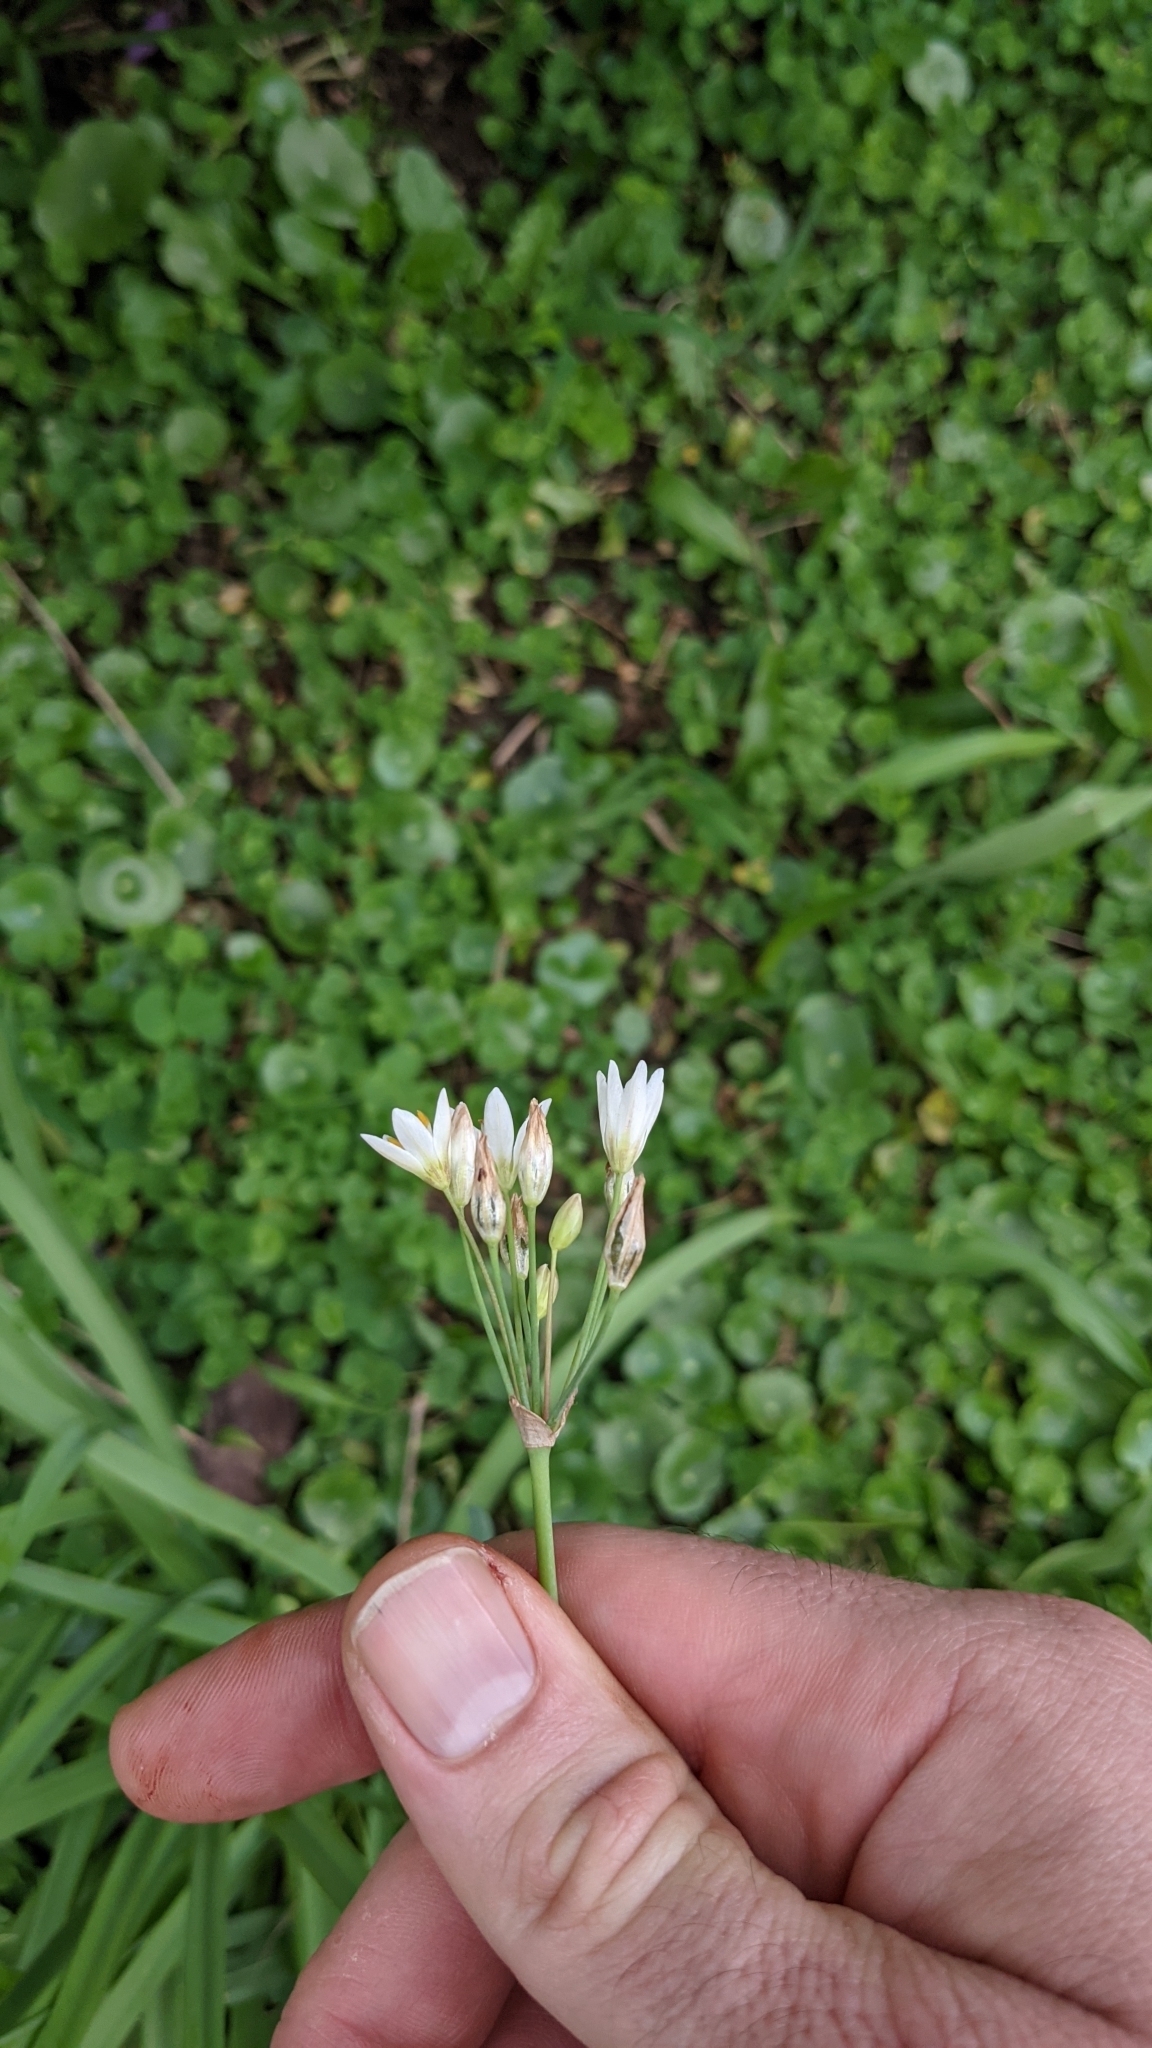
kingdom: Plantae
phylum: Tracheophyta
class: Liliopsida
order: Asparagales
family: Amaryllidaceae
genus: Nothoscordum
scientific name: Nothoscordum gracile
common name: Slender false garlic
